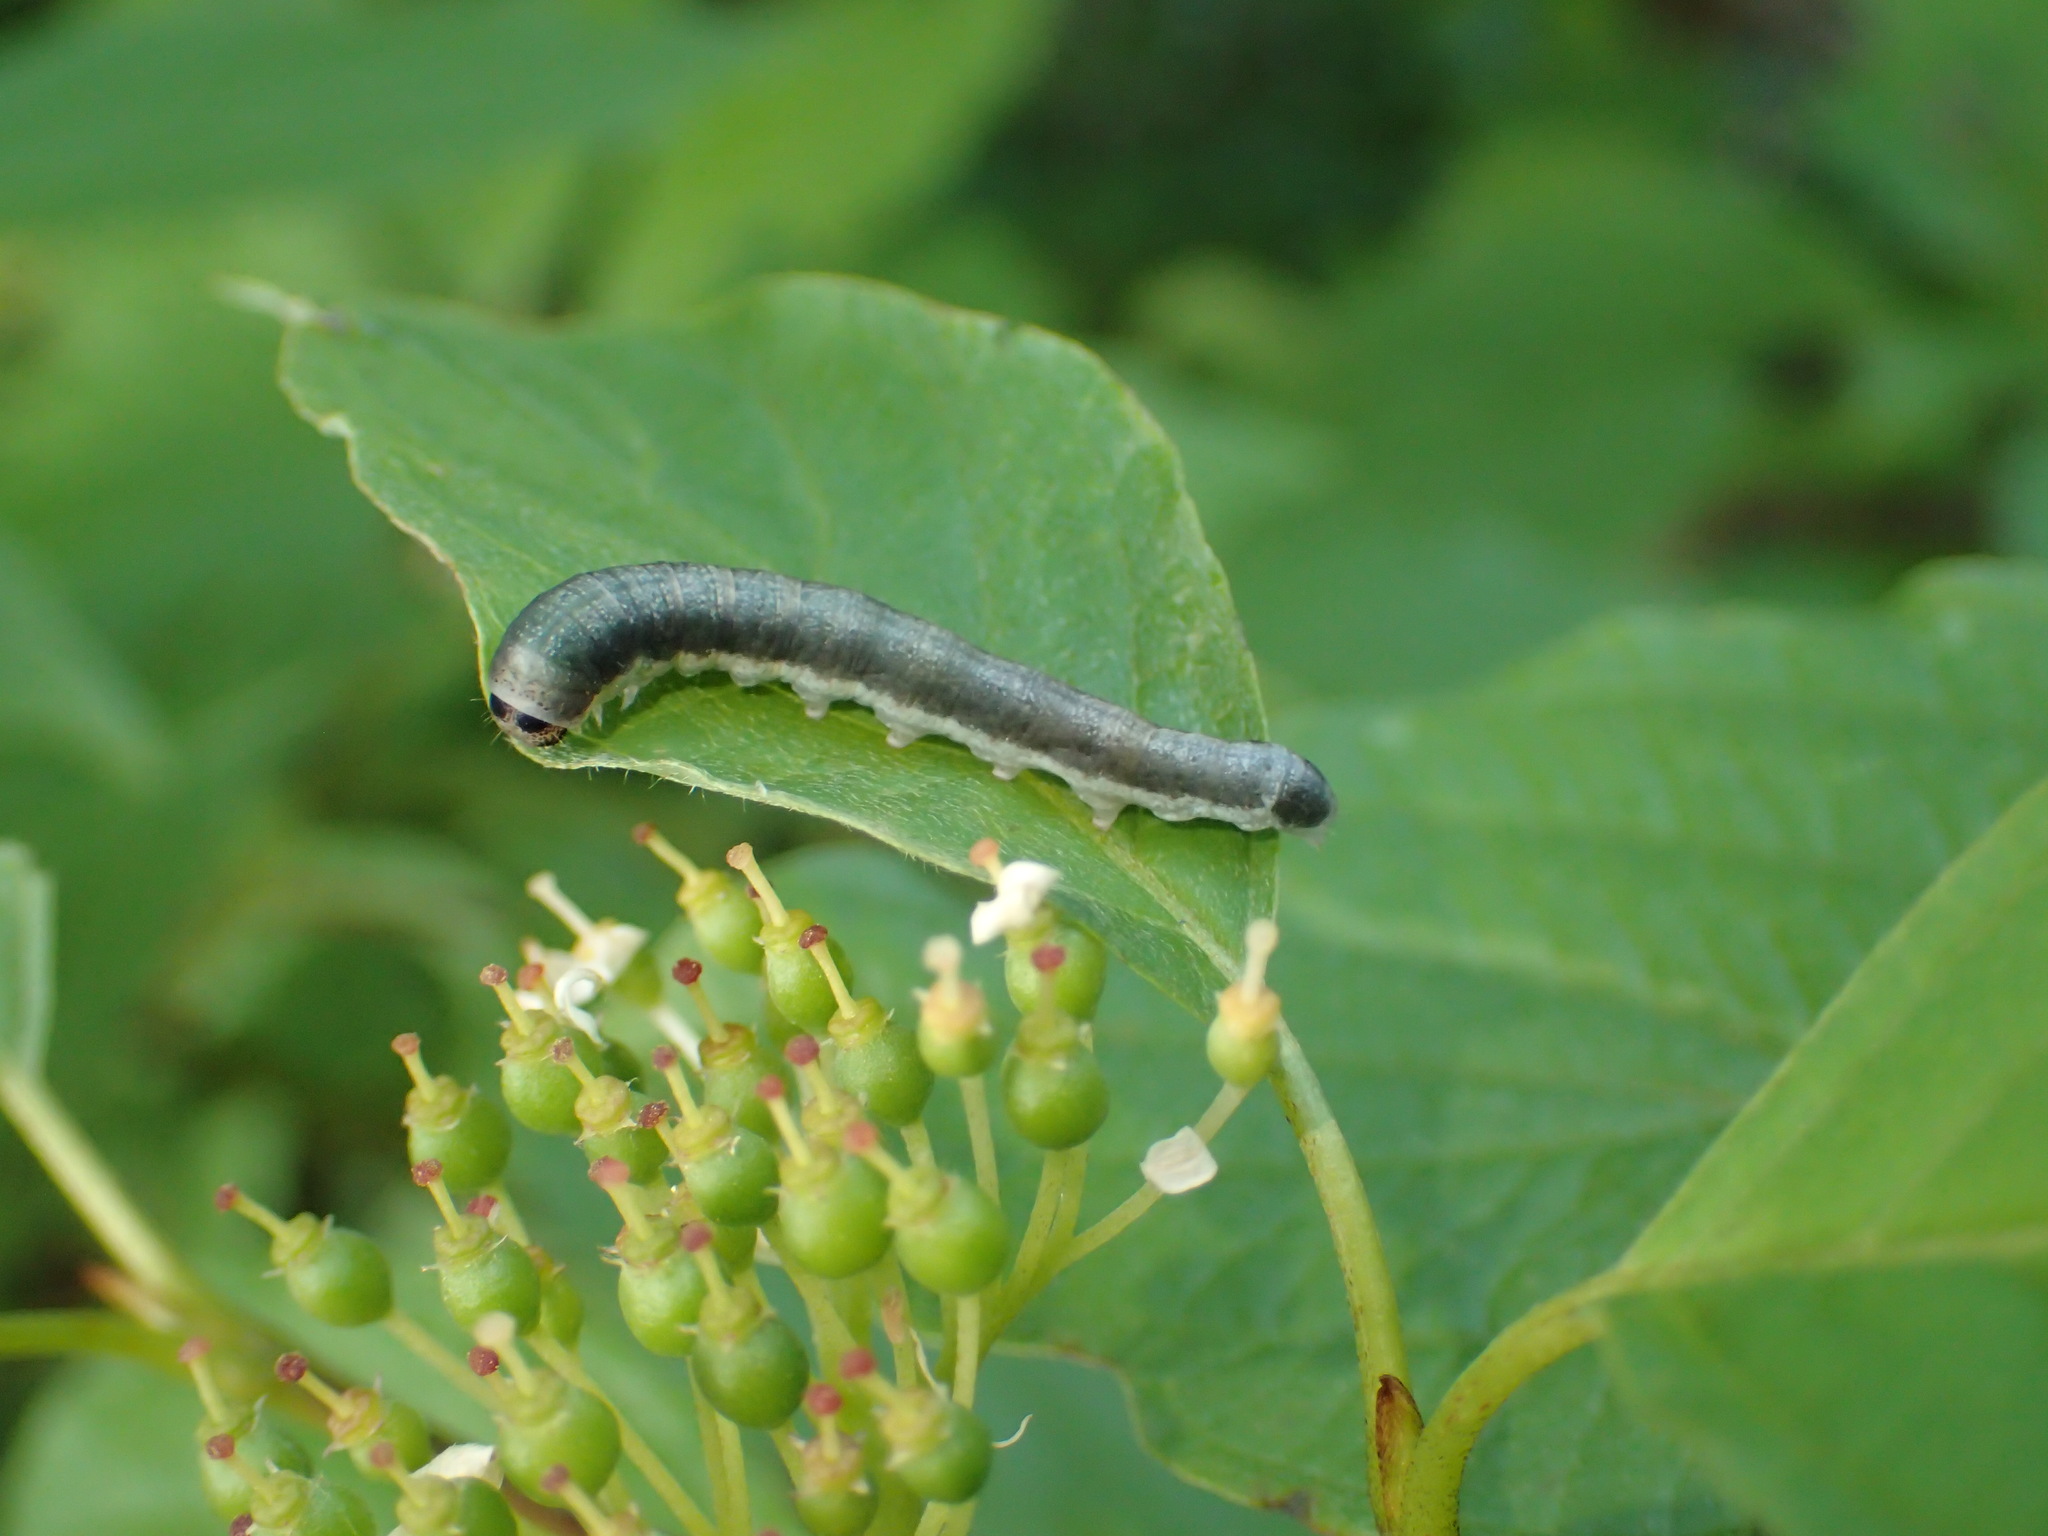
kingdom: Animalia
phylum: Arthropoda
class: Insecta
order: Lepidoptera
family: Drepanidae
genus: Euthyatira
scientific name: Euthyatira pudens
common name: Dogwood thyatirid moth
